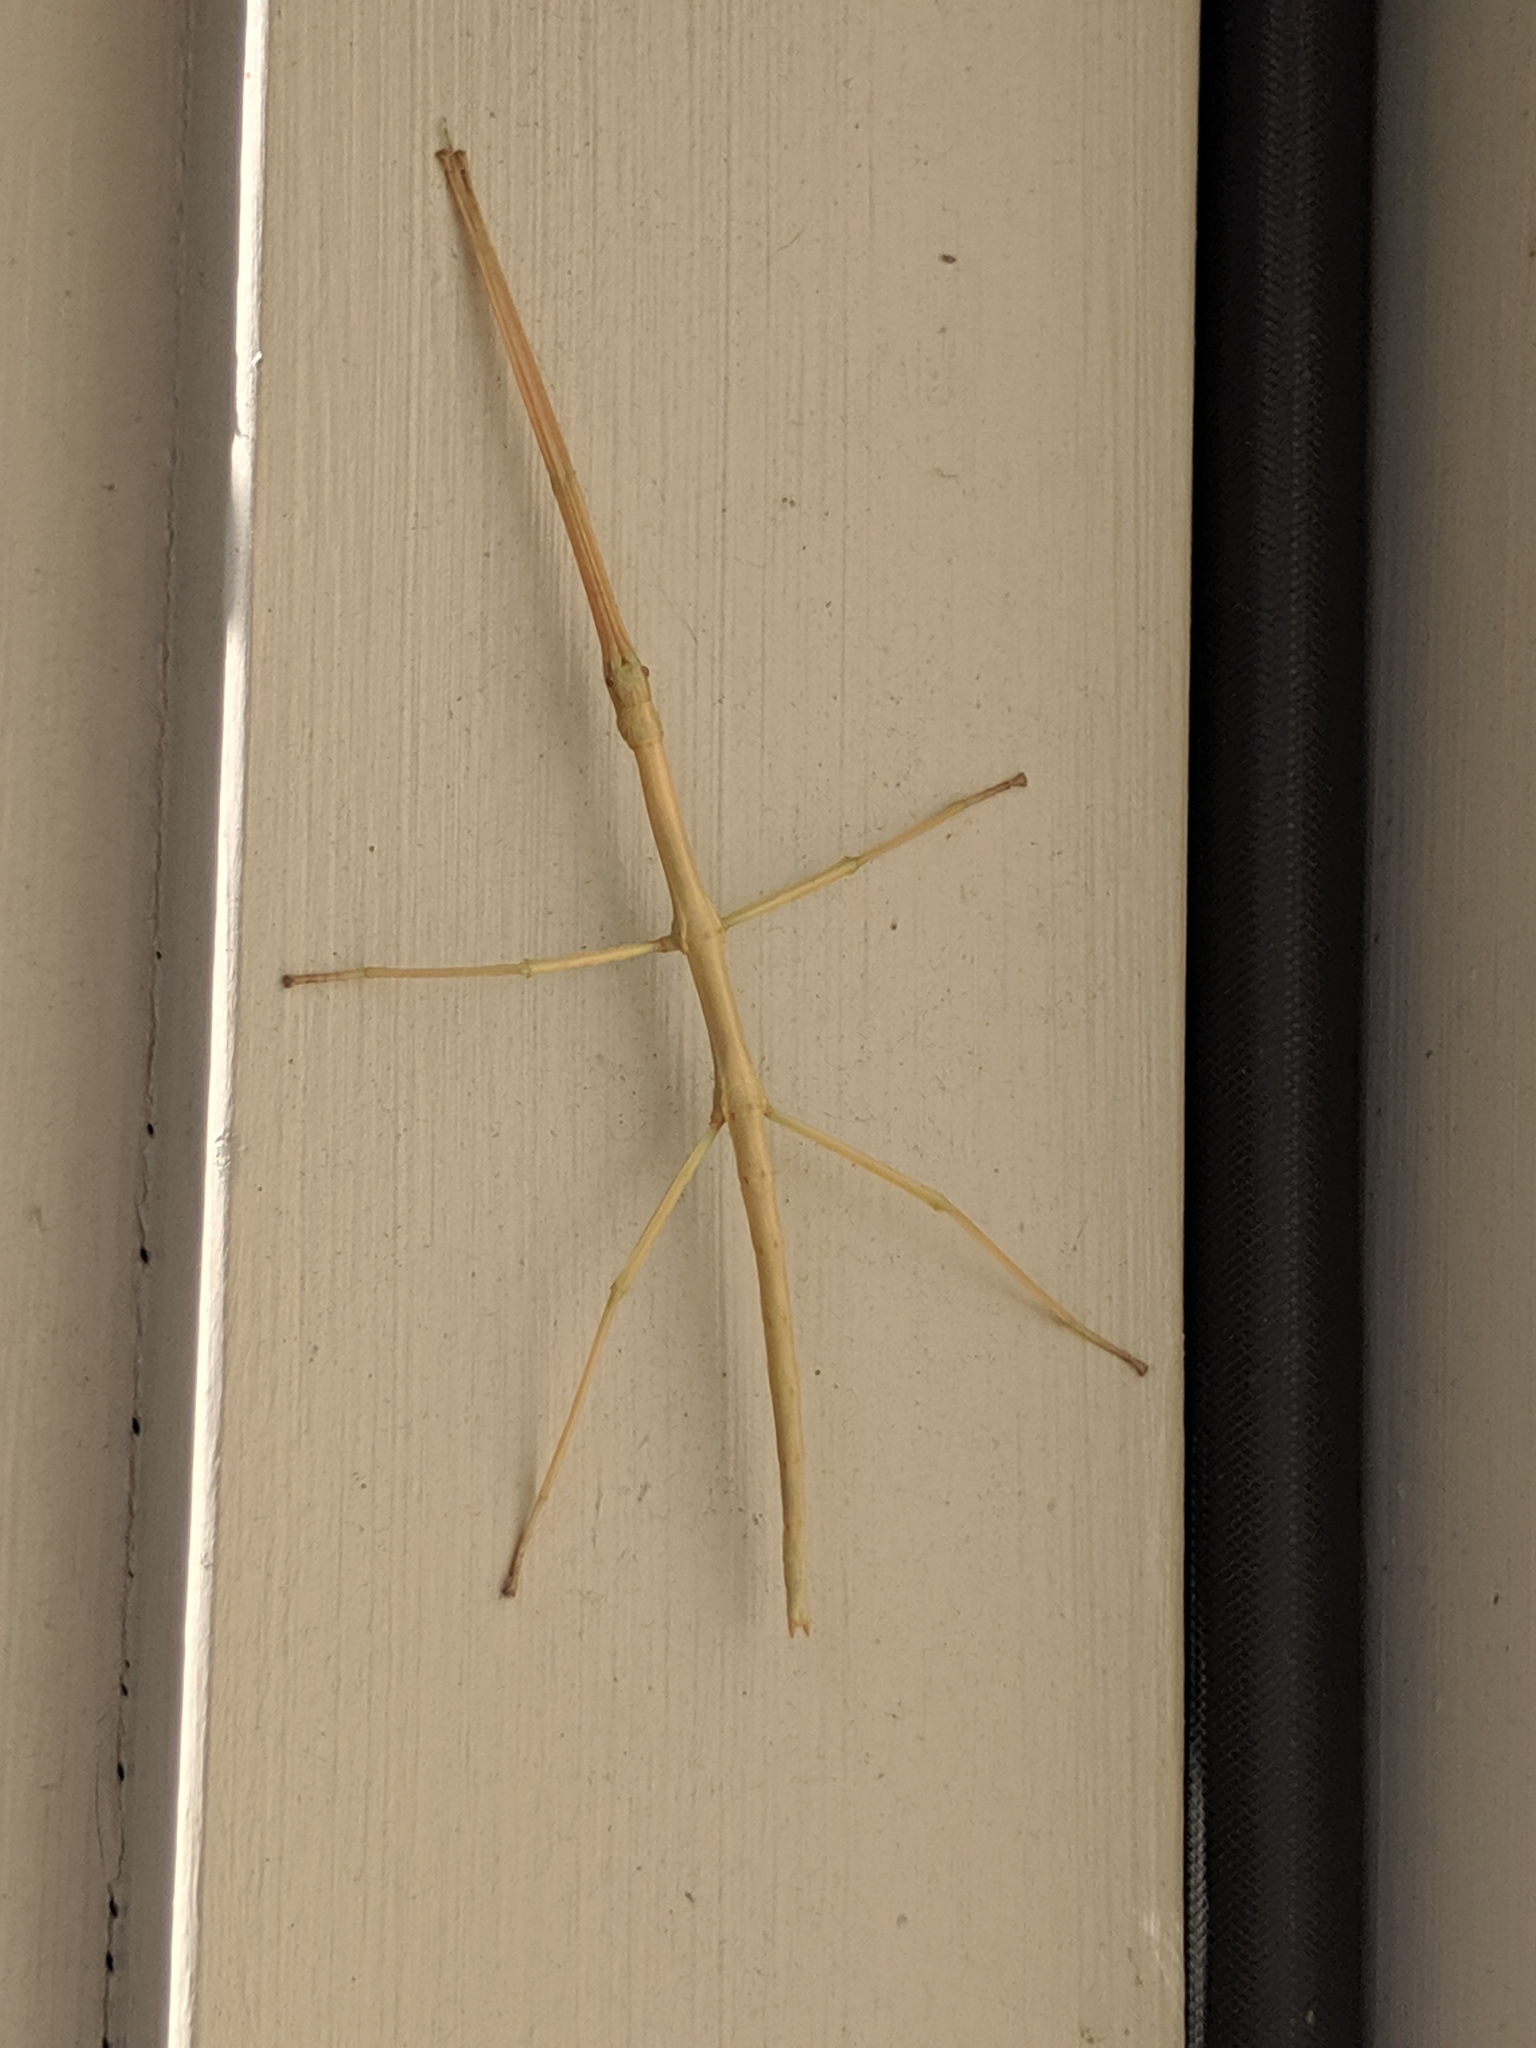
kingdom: Animalia
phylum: Arthropoda
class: Insecta
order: Phasmida
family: Diapheromeridae
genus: Diapheromera
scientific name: Diapheromera femorata
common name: Common american walkingstick
